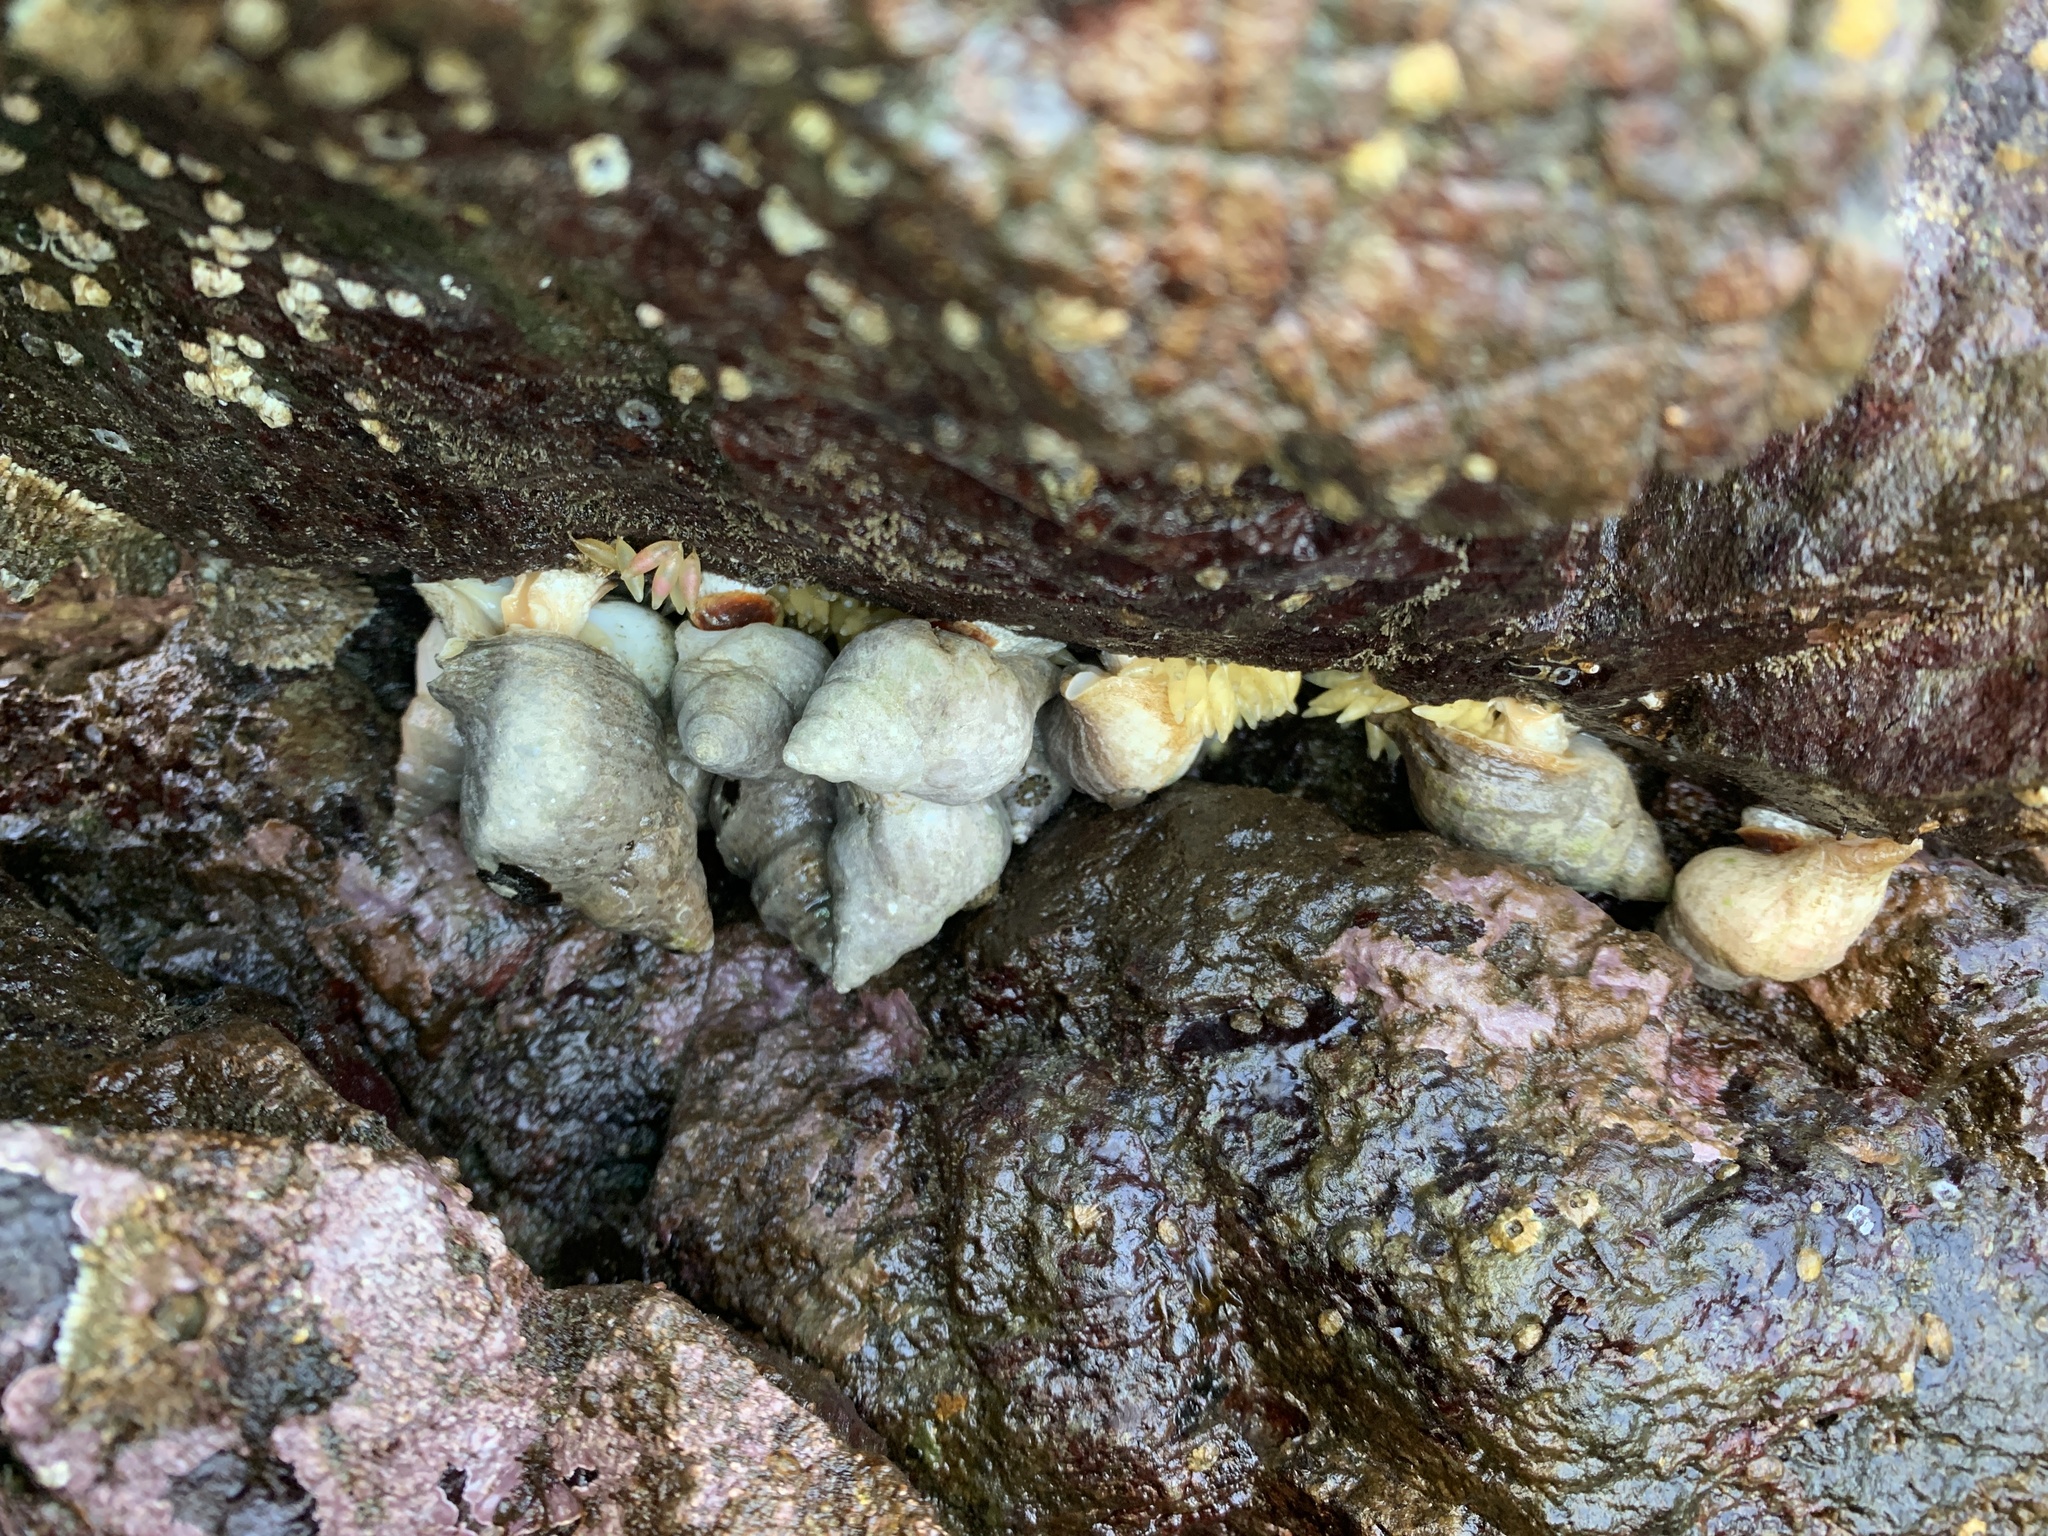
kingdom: Animalia
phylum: Mollusca
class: Gastropoda
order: Neogastropoda
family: Muricidae
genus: Nucella
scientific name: Nucella lamellosa
